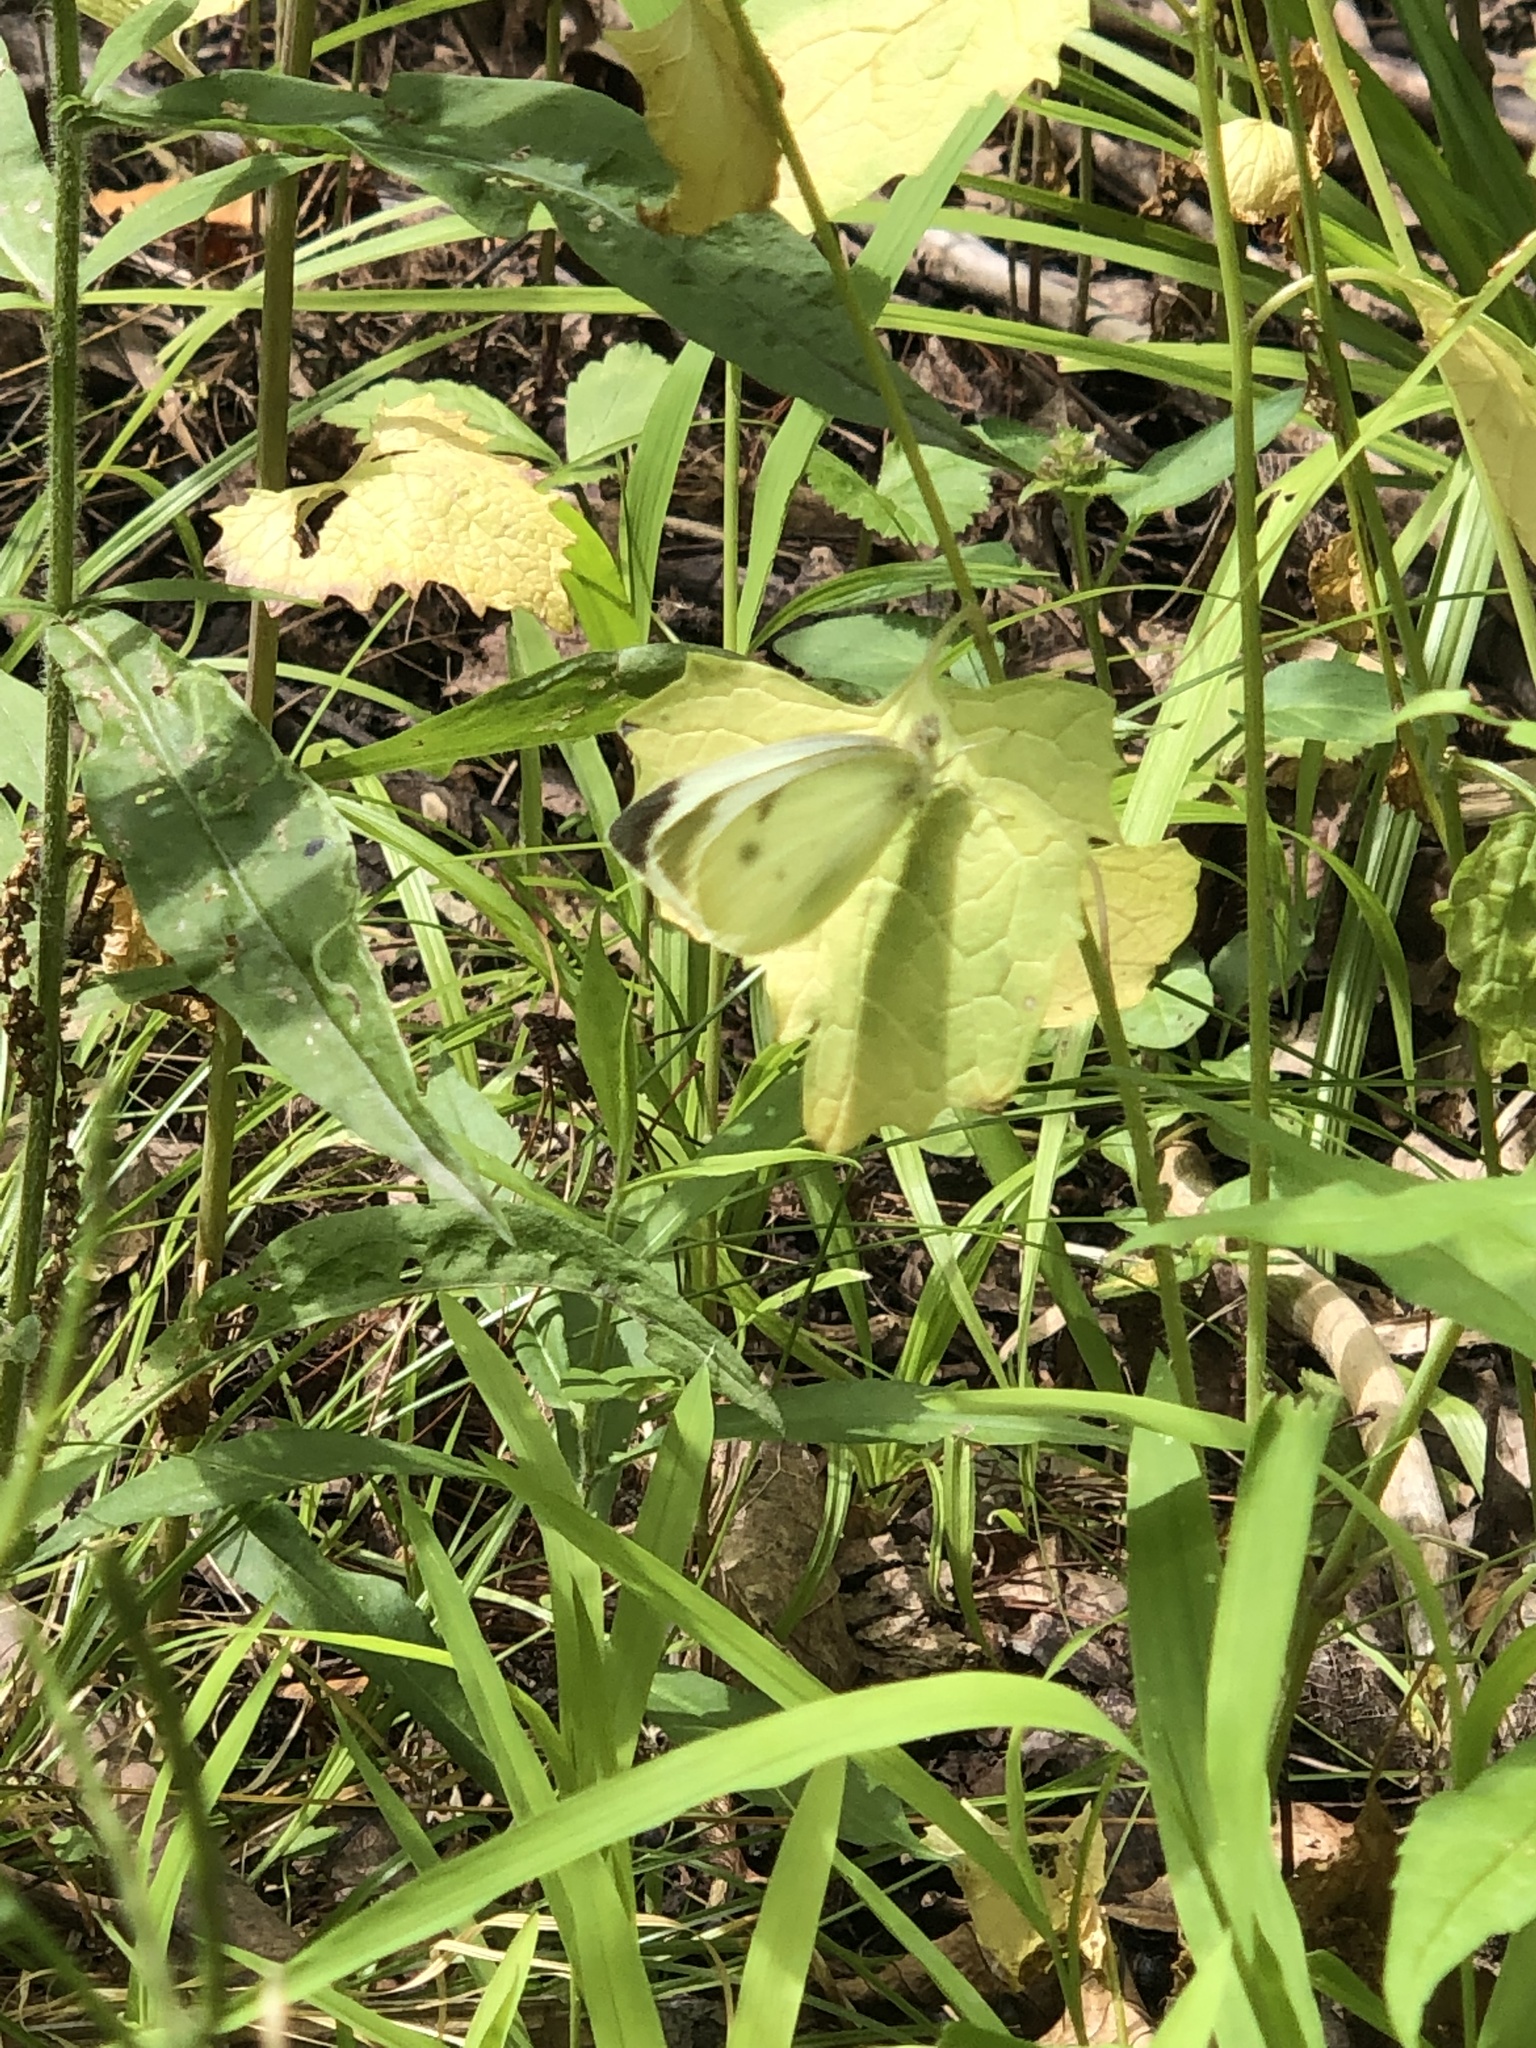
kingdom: Animalia
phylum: Arthropoda
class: Insecta
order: Lepidoptera
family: Pieridae
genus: Pieris
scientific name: Pieris rapae
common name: Small white
